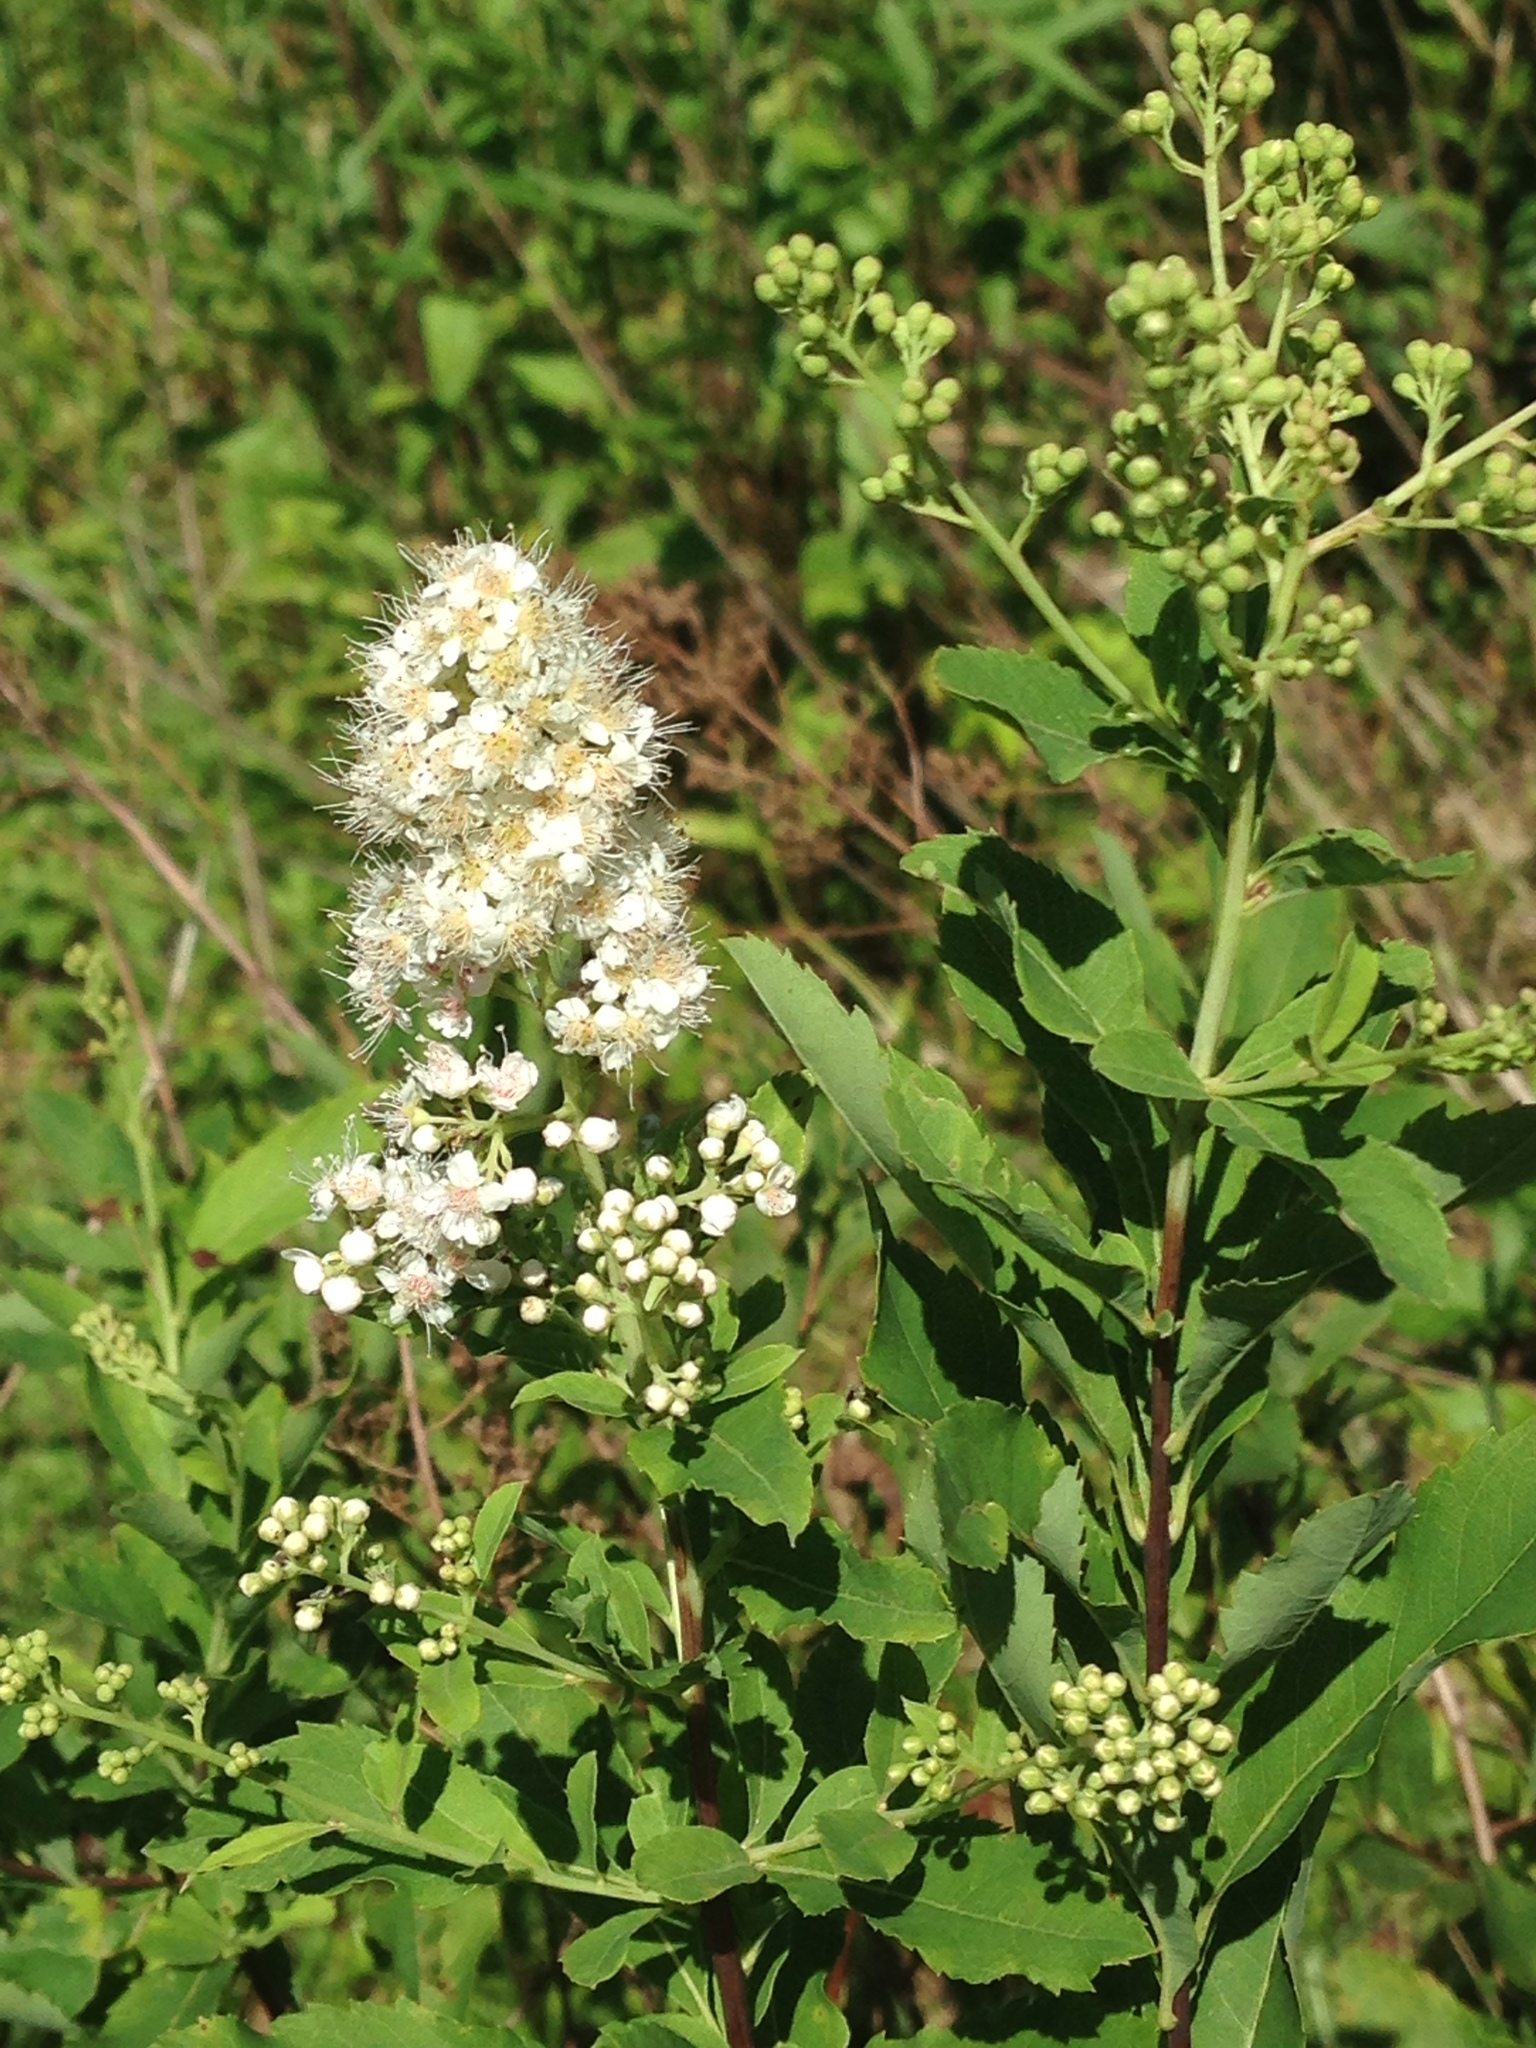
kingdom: Plantae
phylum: Tracheophyta
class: Magnoliopsida
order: Rosales
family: Rosaceae
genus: Spiraea
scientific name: Spiraea alba
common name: Pale bridewort
